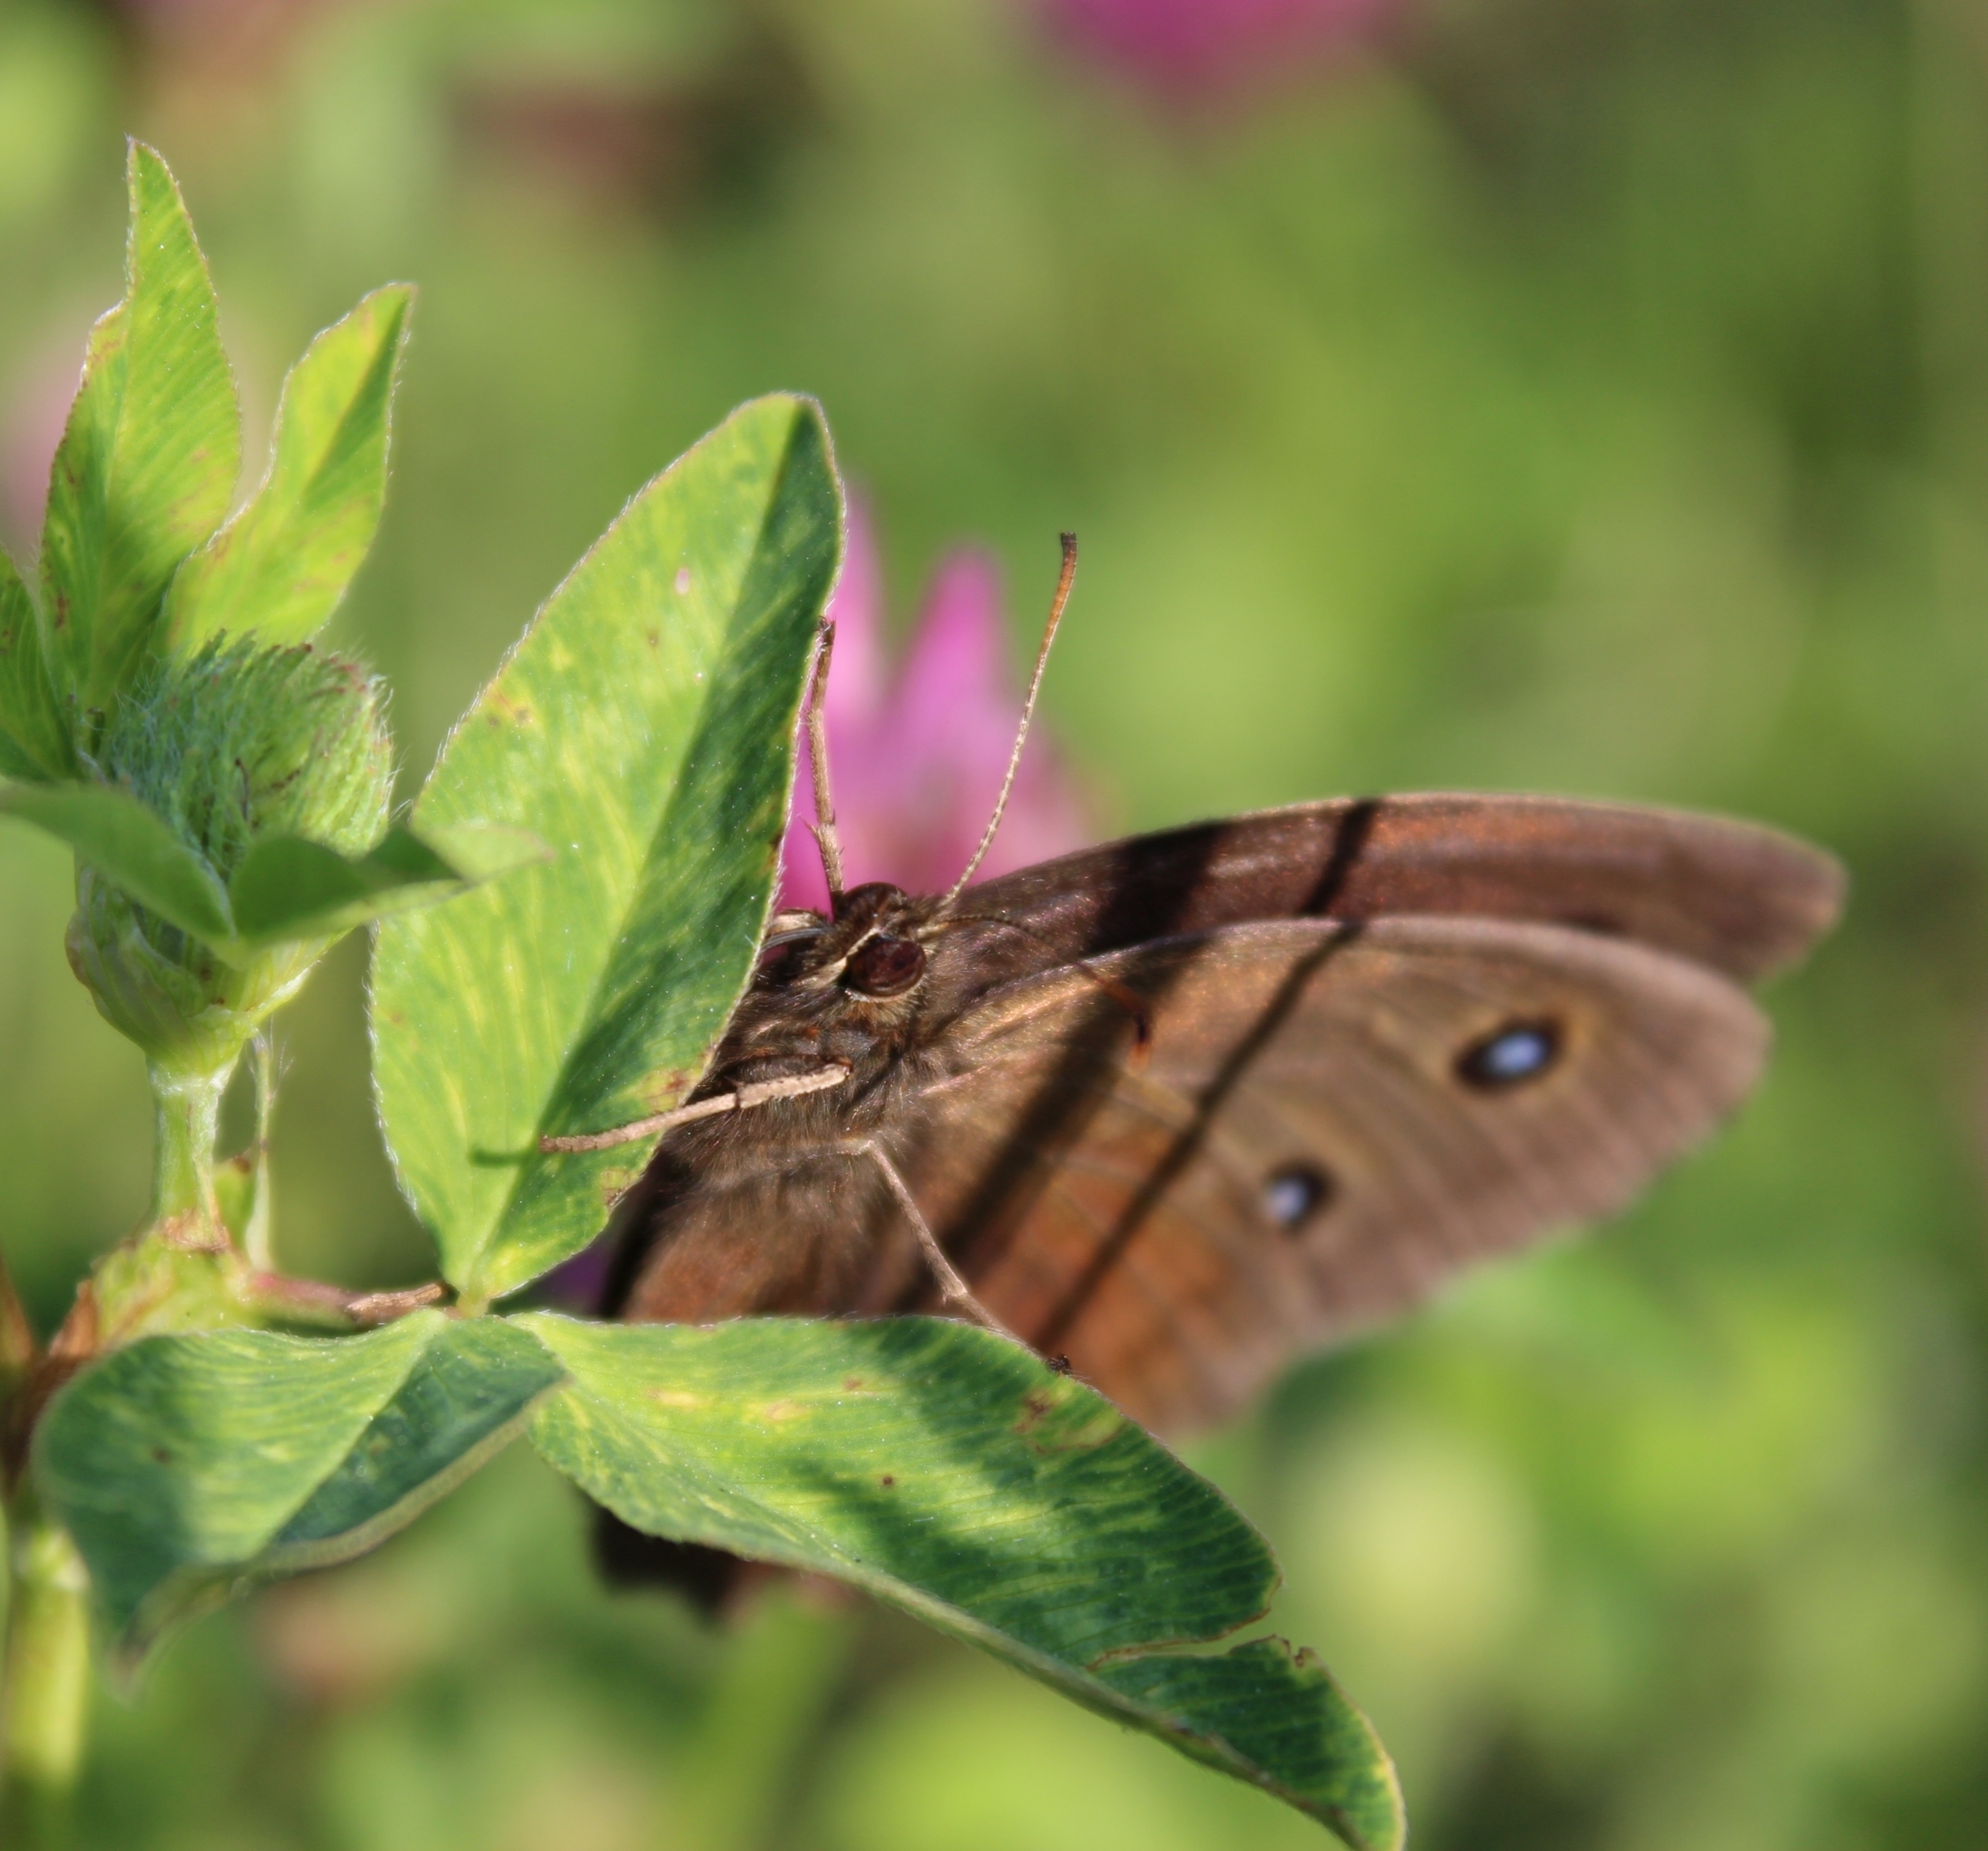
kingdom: Animalia
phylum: Arthropoda
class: Insecta
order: Lepidoptera
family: Nymphalidae
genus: Minois
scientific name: Minois dryas
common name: Dryad
